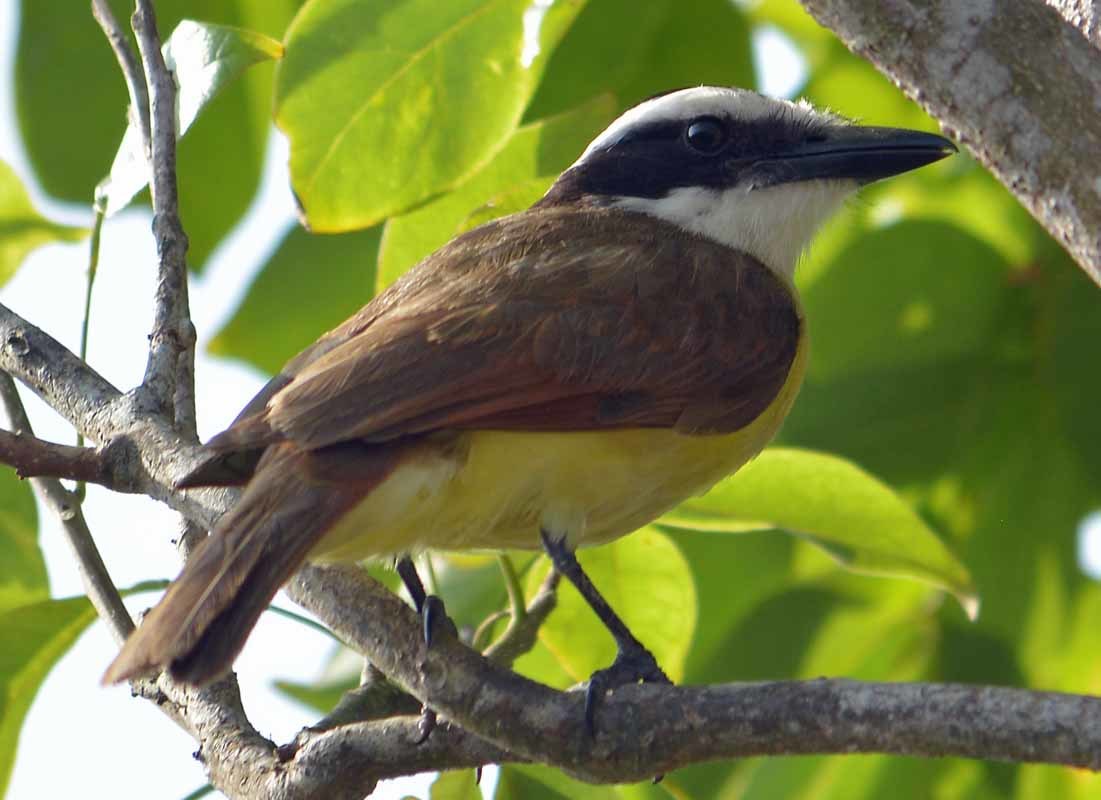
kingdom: Animalia
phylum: Chordata
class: Aves
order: Passeriformes
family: Tyrannidae
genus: Pitangus
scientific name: Pitangus sulphuratus
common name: Great kiskadee
